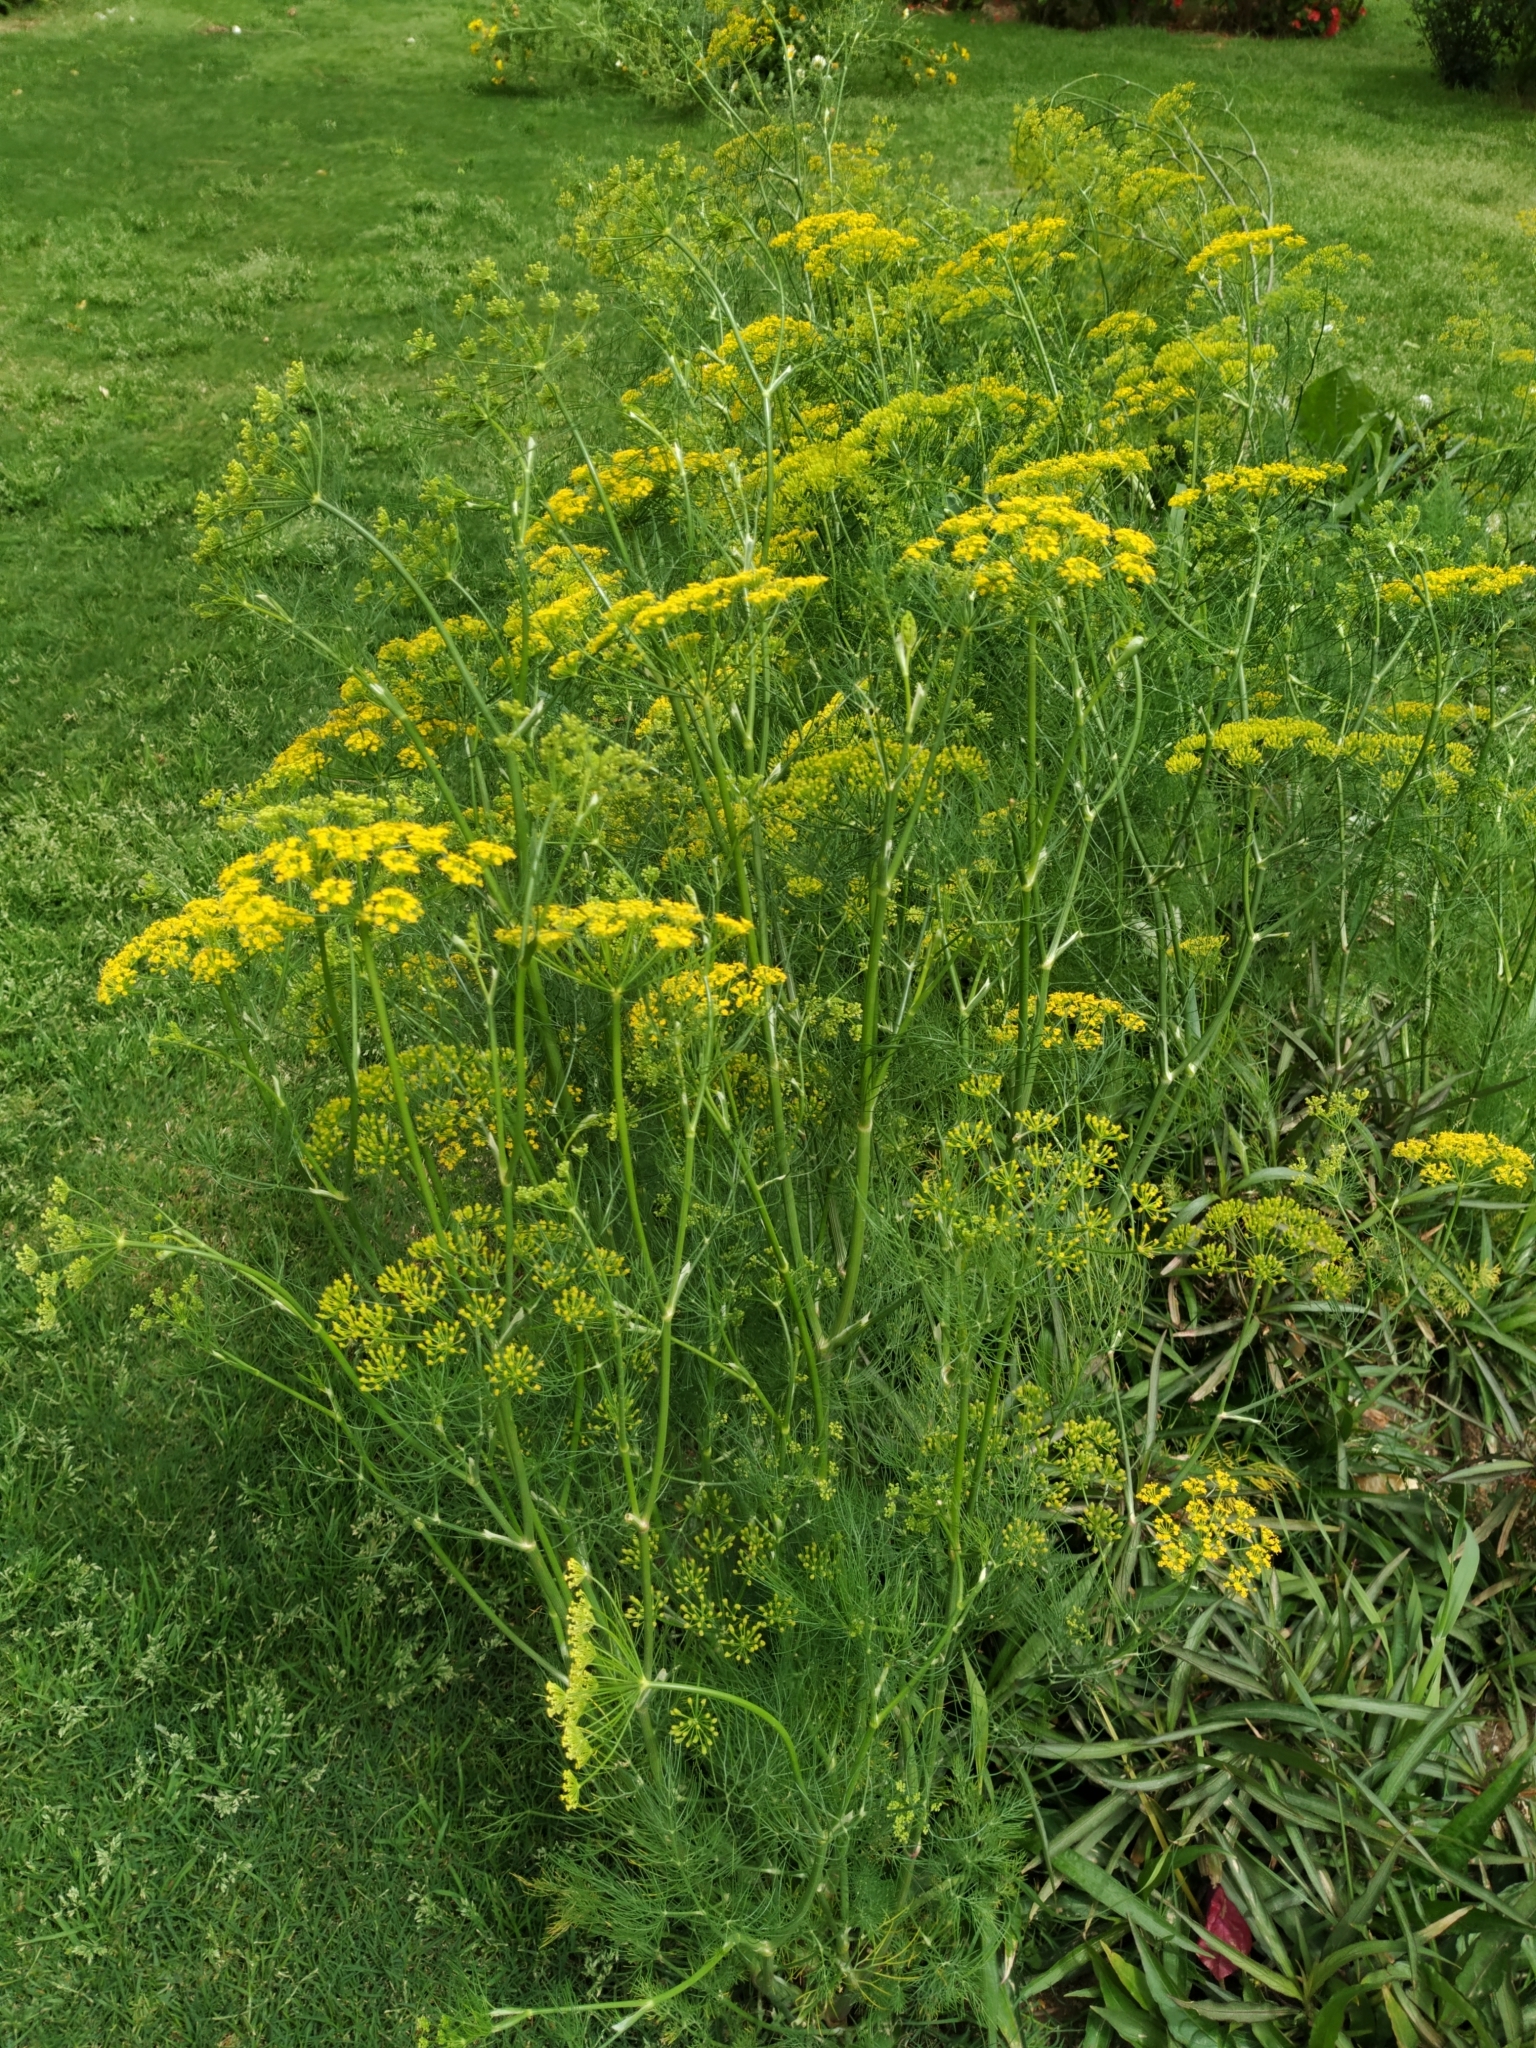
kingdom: Plantae
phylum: Tracheophyta
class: Magnoliopsida
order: Apiales
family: Apiaceae
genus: Anethum
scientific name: Anethum graveolens
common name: Dill
